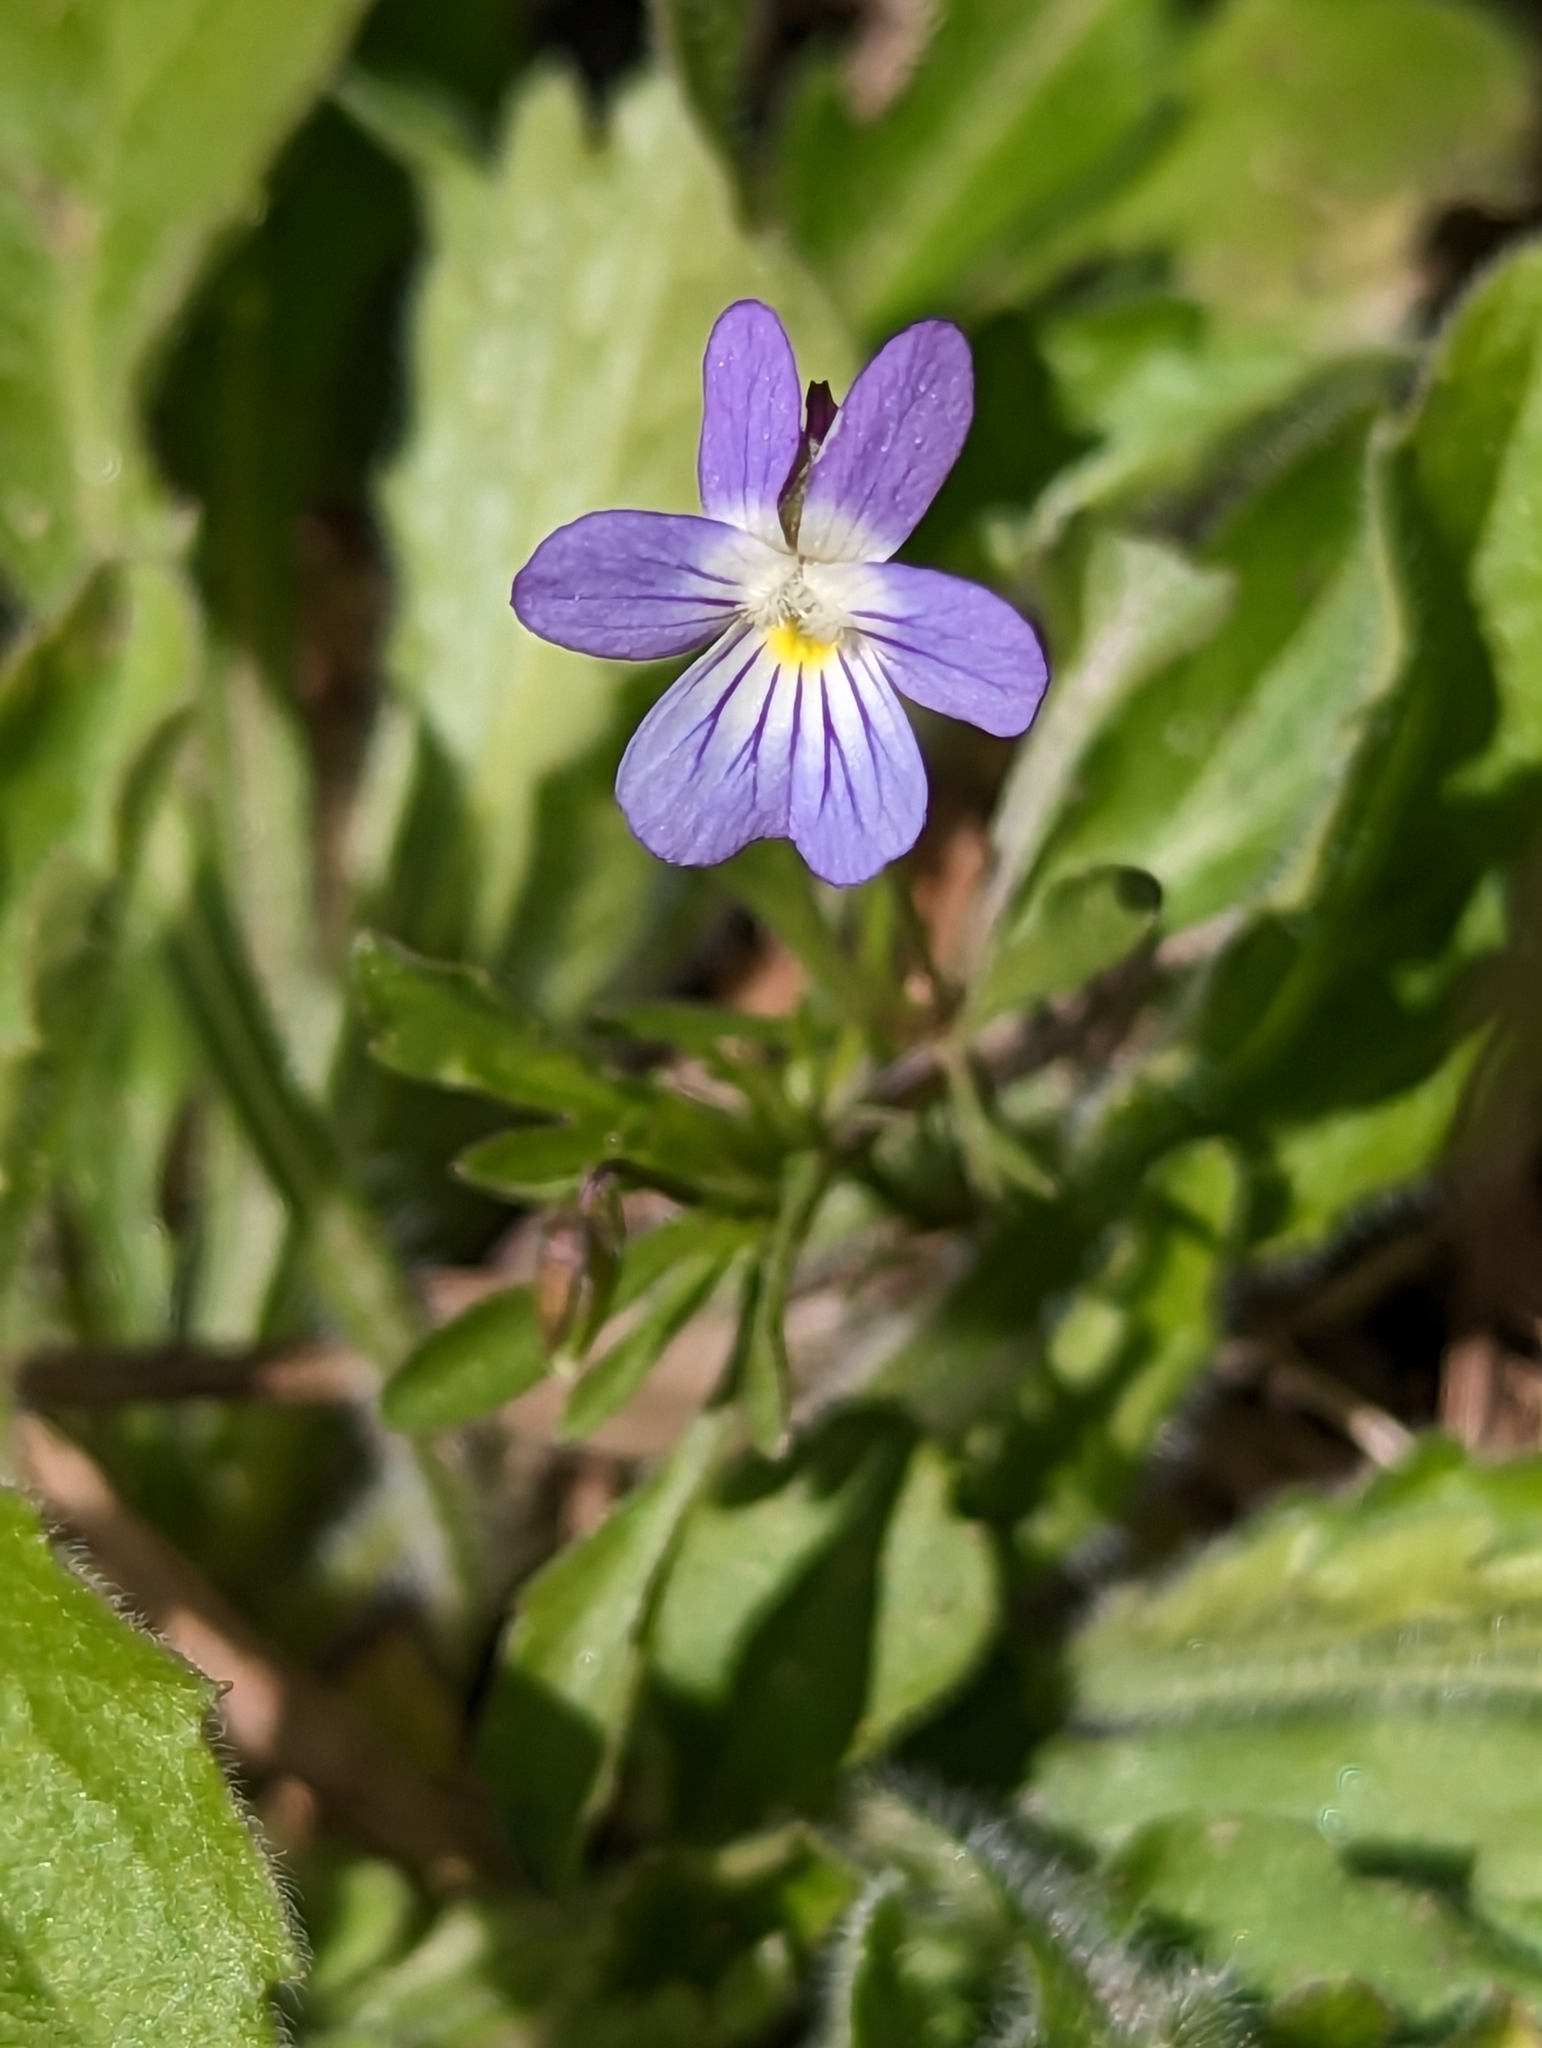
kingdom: Plantae
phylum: Tracheophyta
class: Magnoliopsida
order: Malpighiales
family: Violaceae
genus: Viola
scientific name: Viola rafinesquei
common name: American field pansy
